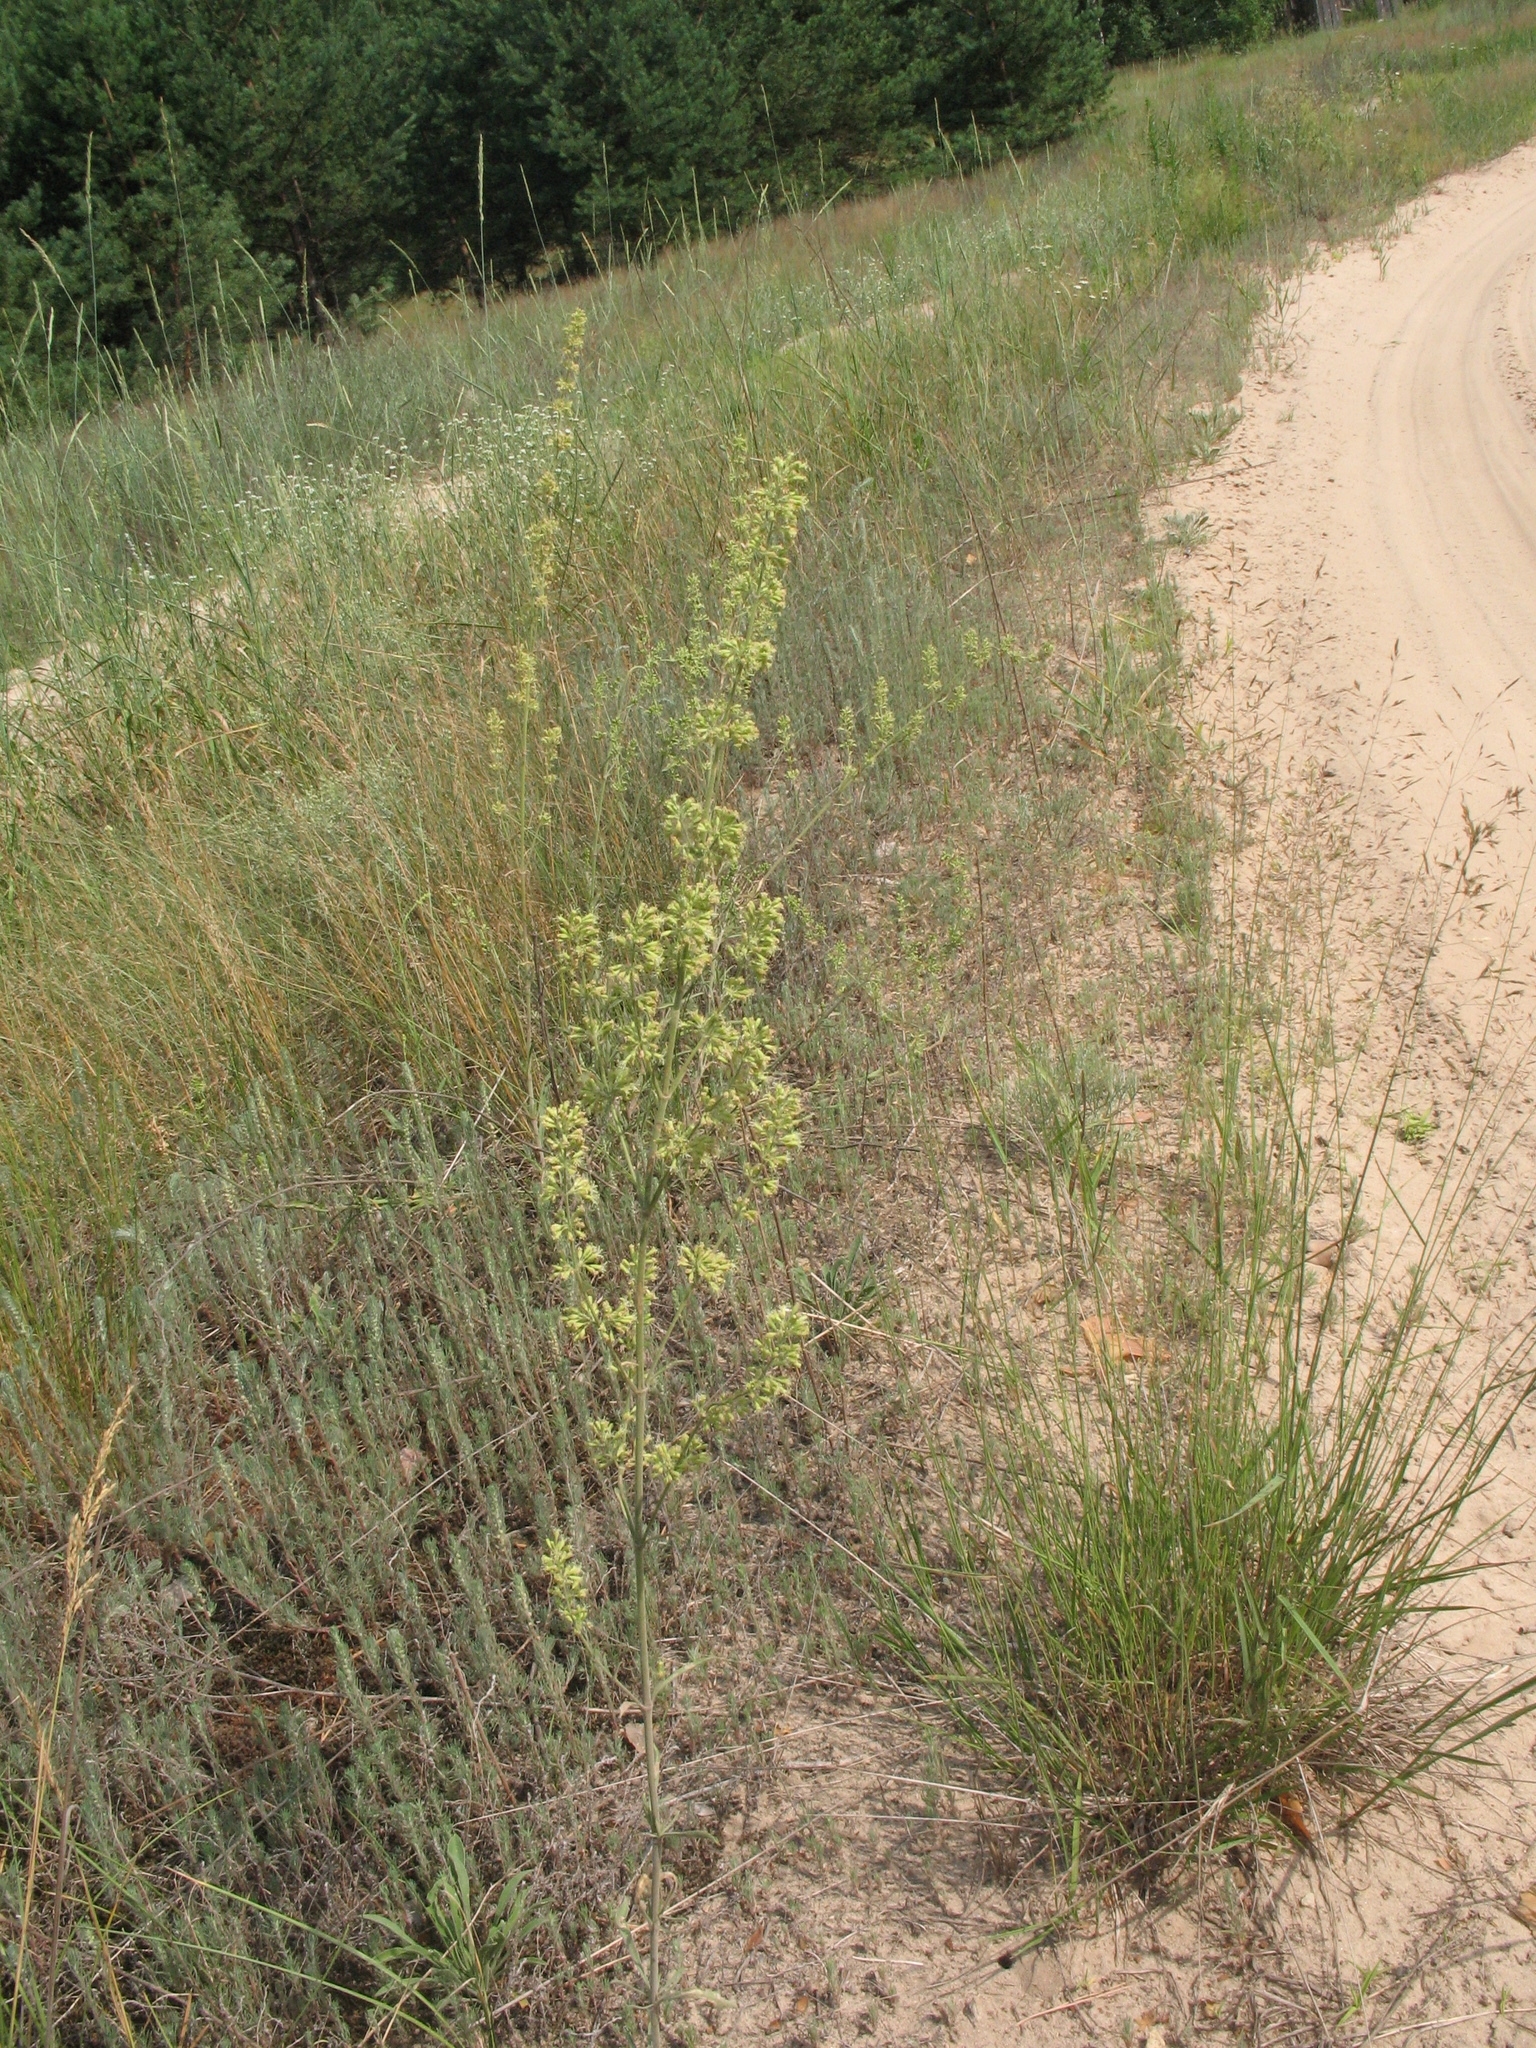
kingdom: Plantae
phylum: Tracheophyta
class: Magnoliopsida
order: Caryophyllales
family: Caryophyllaceae
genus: Silene
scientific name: Silene borysthenica
